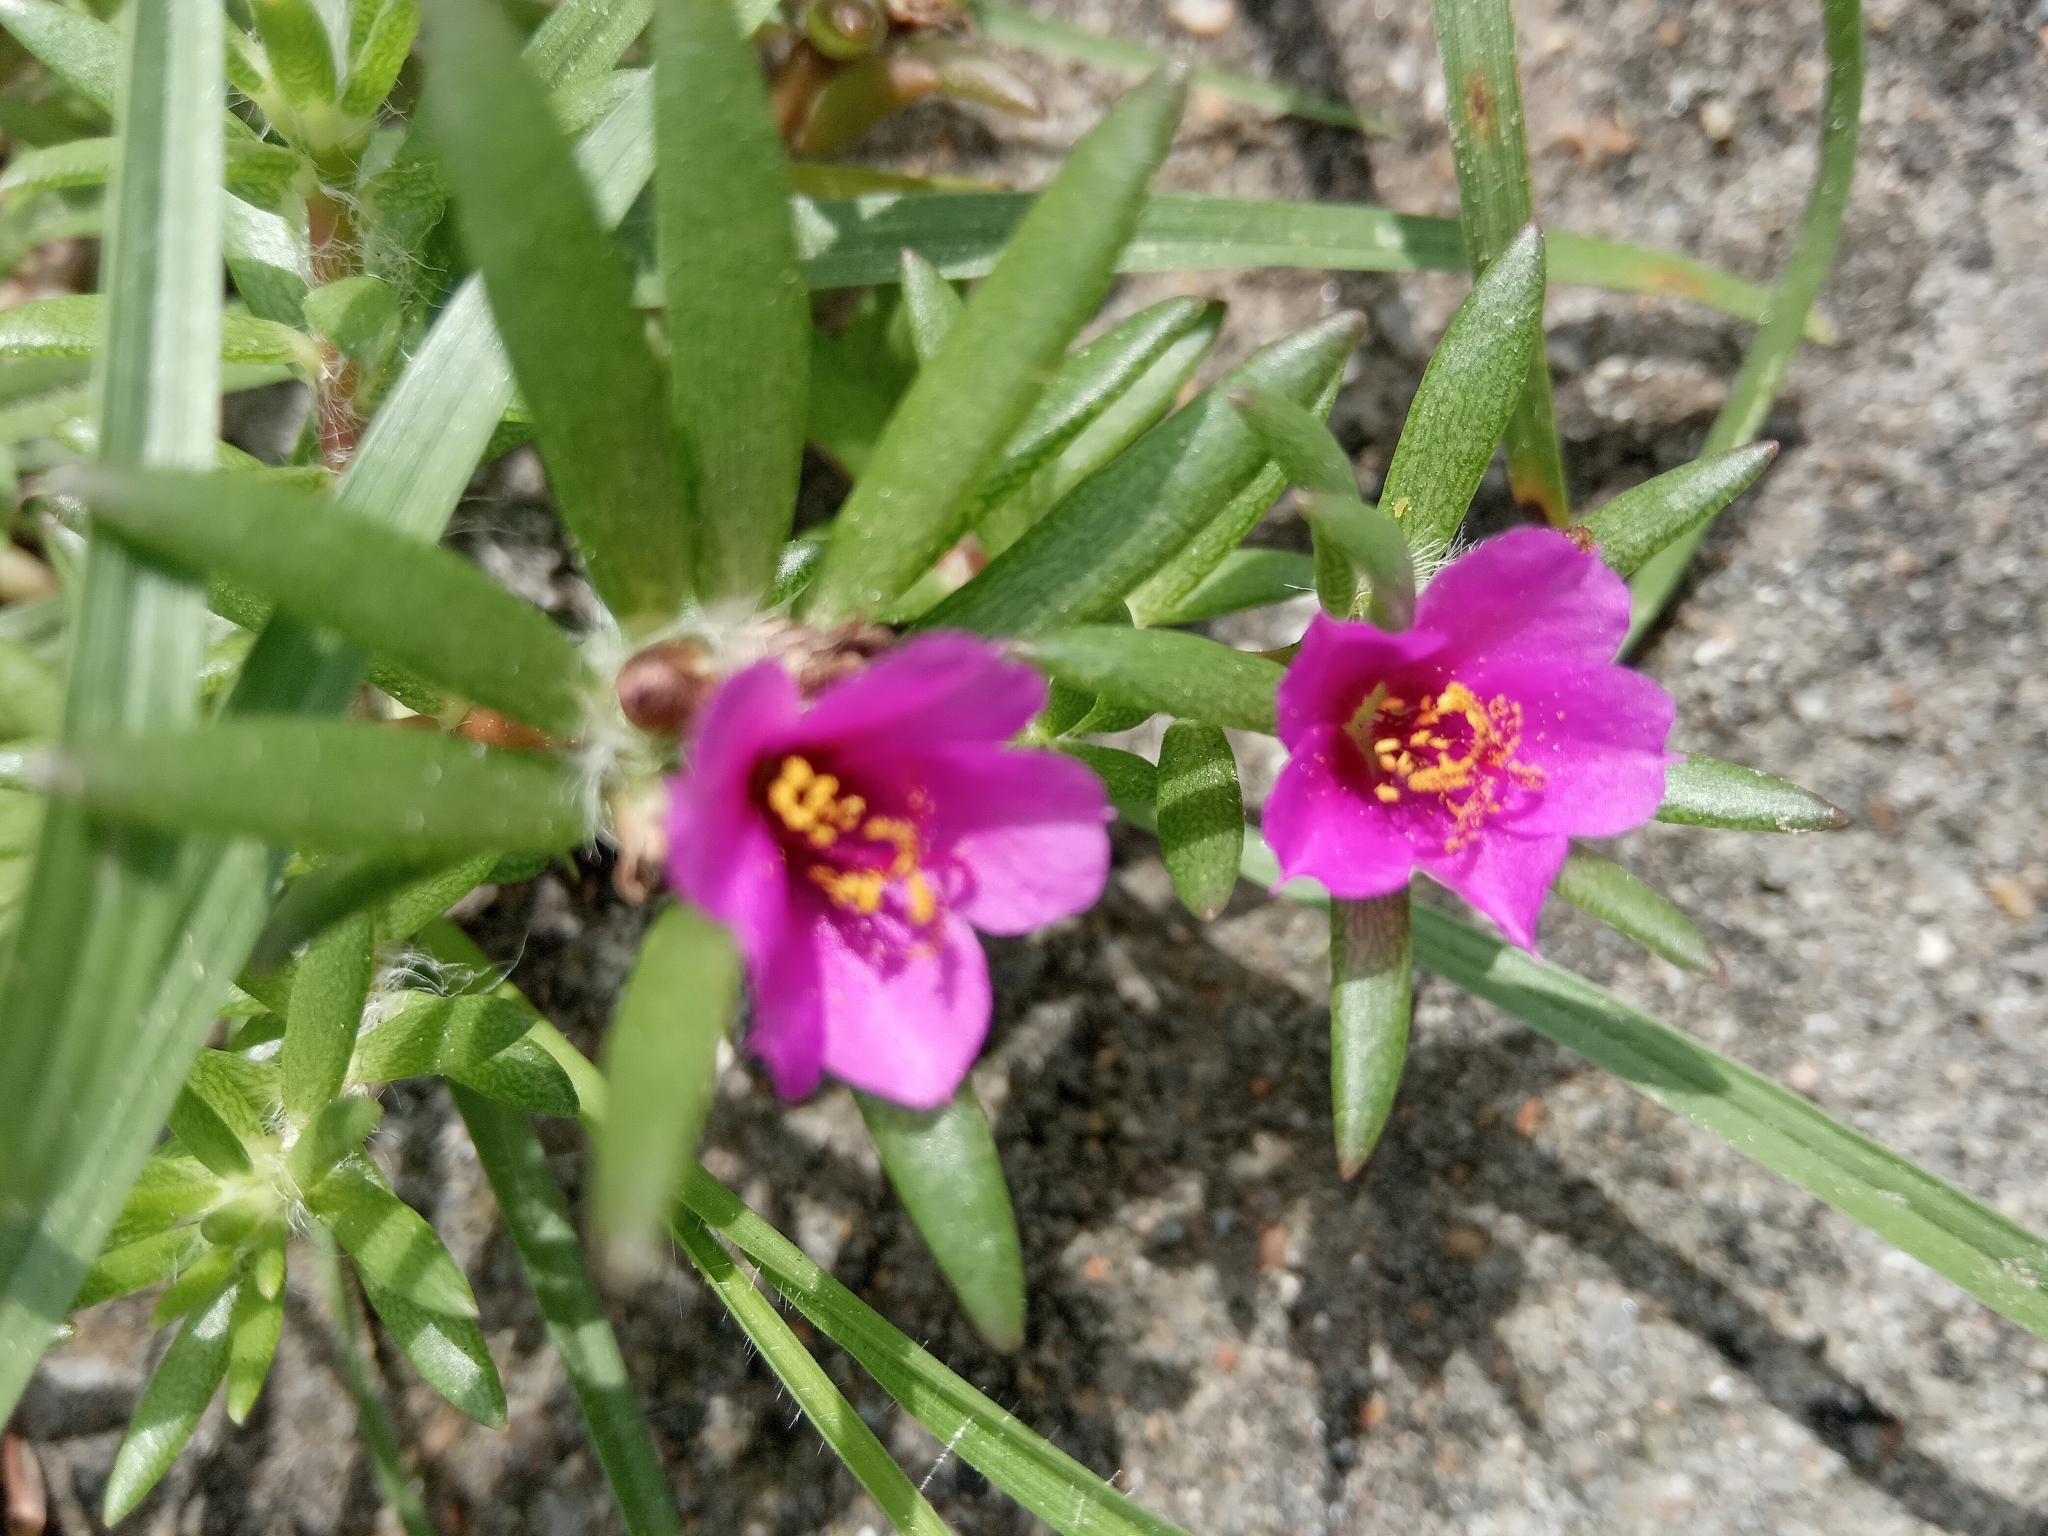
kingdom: Plantae
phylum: Tracheophyta
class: Magnoliopsida
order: Caryophyllales
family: Portulacaceae
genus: Portulaca
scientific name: Portulaca pilosa
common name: Kiss me quick
